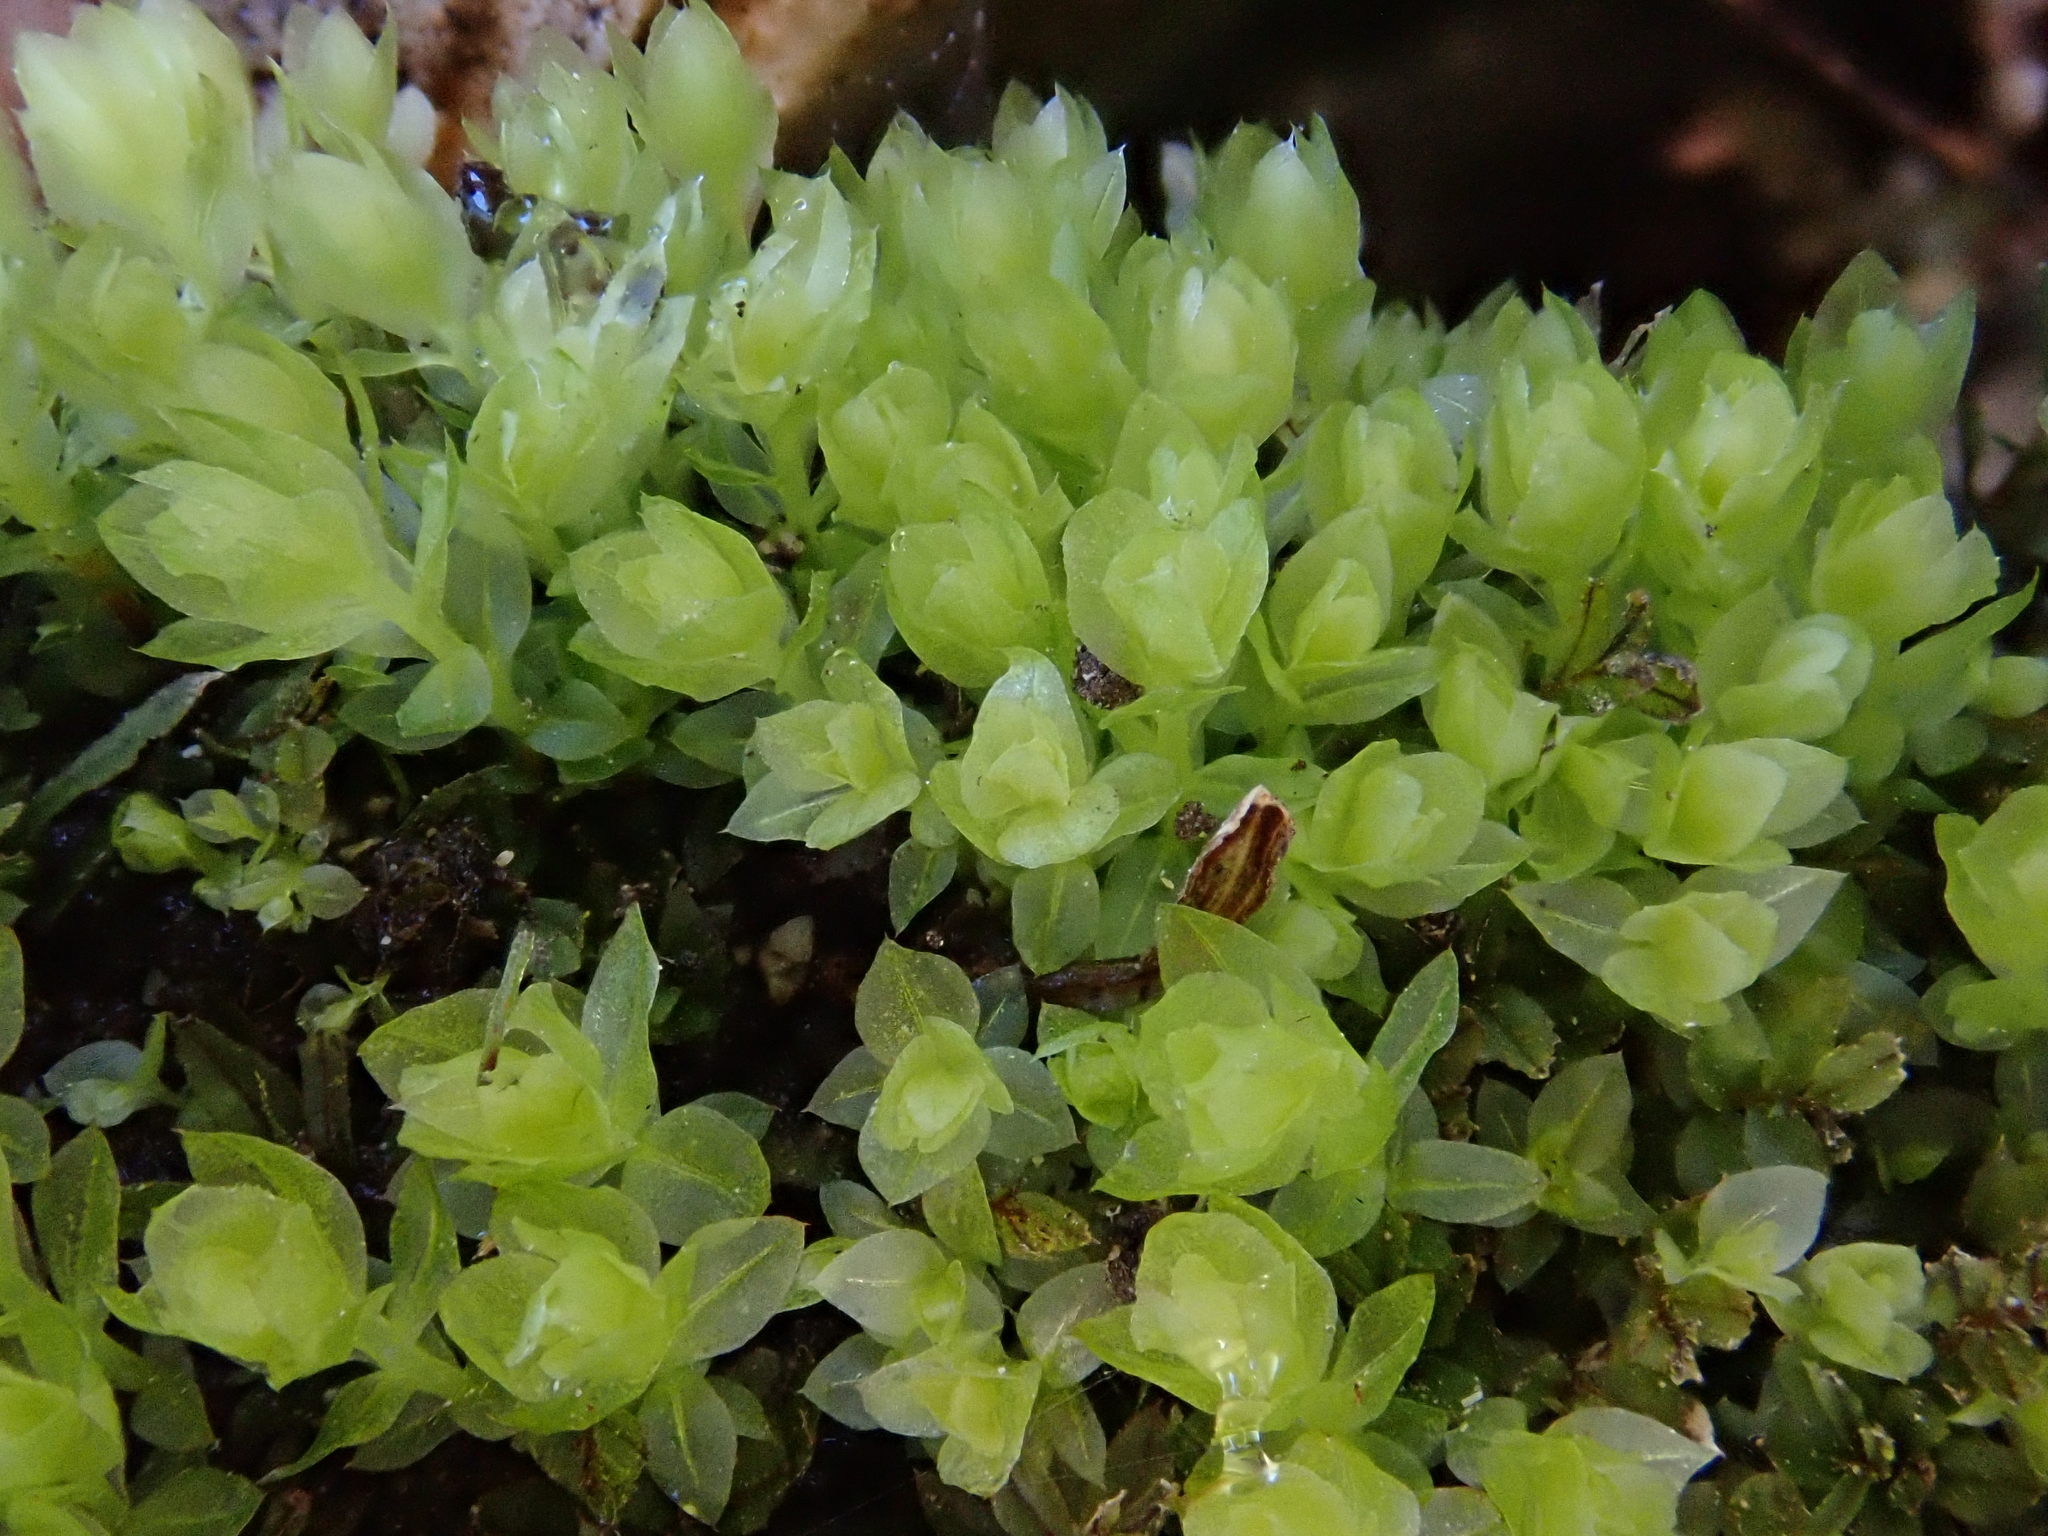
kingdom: Plantae
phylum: Bryophyta
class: Bryopsida
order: Bryales
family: Mniaceae
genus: Mnium
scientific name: Mnium stellare
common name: Star leafy moss
